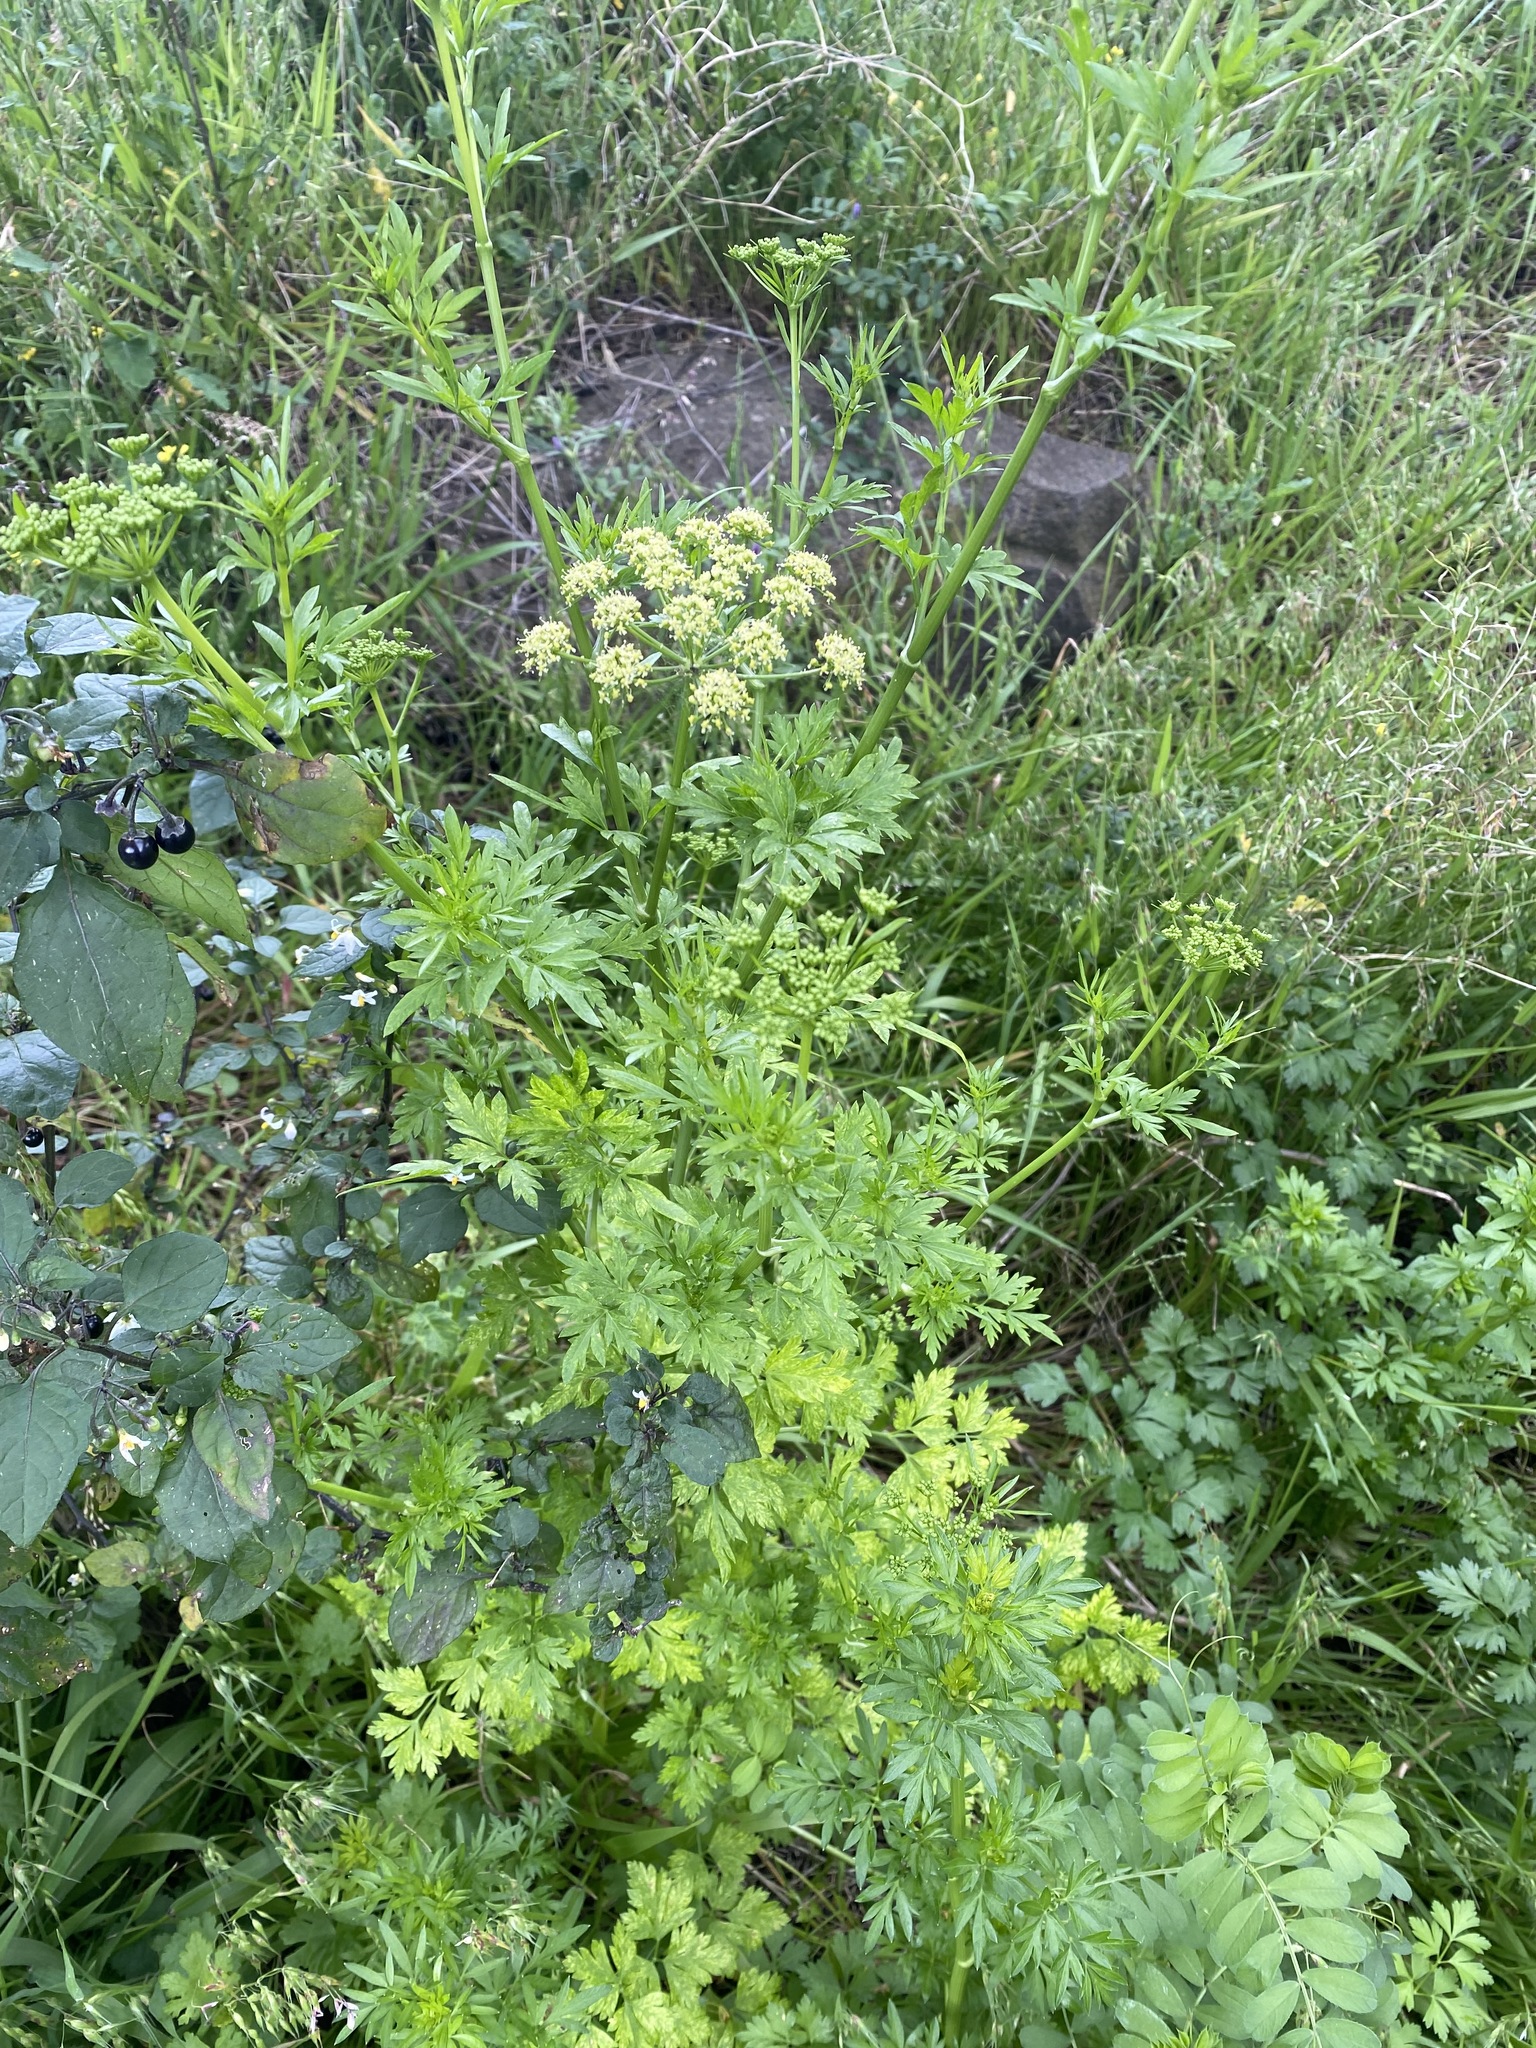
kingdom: Plantae
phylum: Tracheophyta
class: Magnoliopsida
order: Apiales
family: Apiaceae
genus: Petroselinum
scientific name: Petroselinum crispum
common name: Parsley
